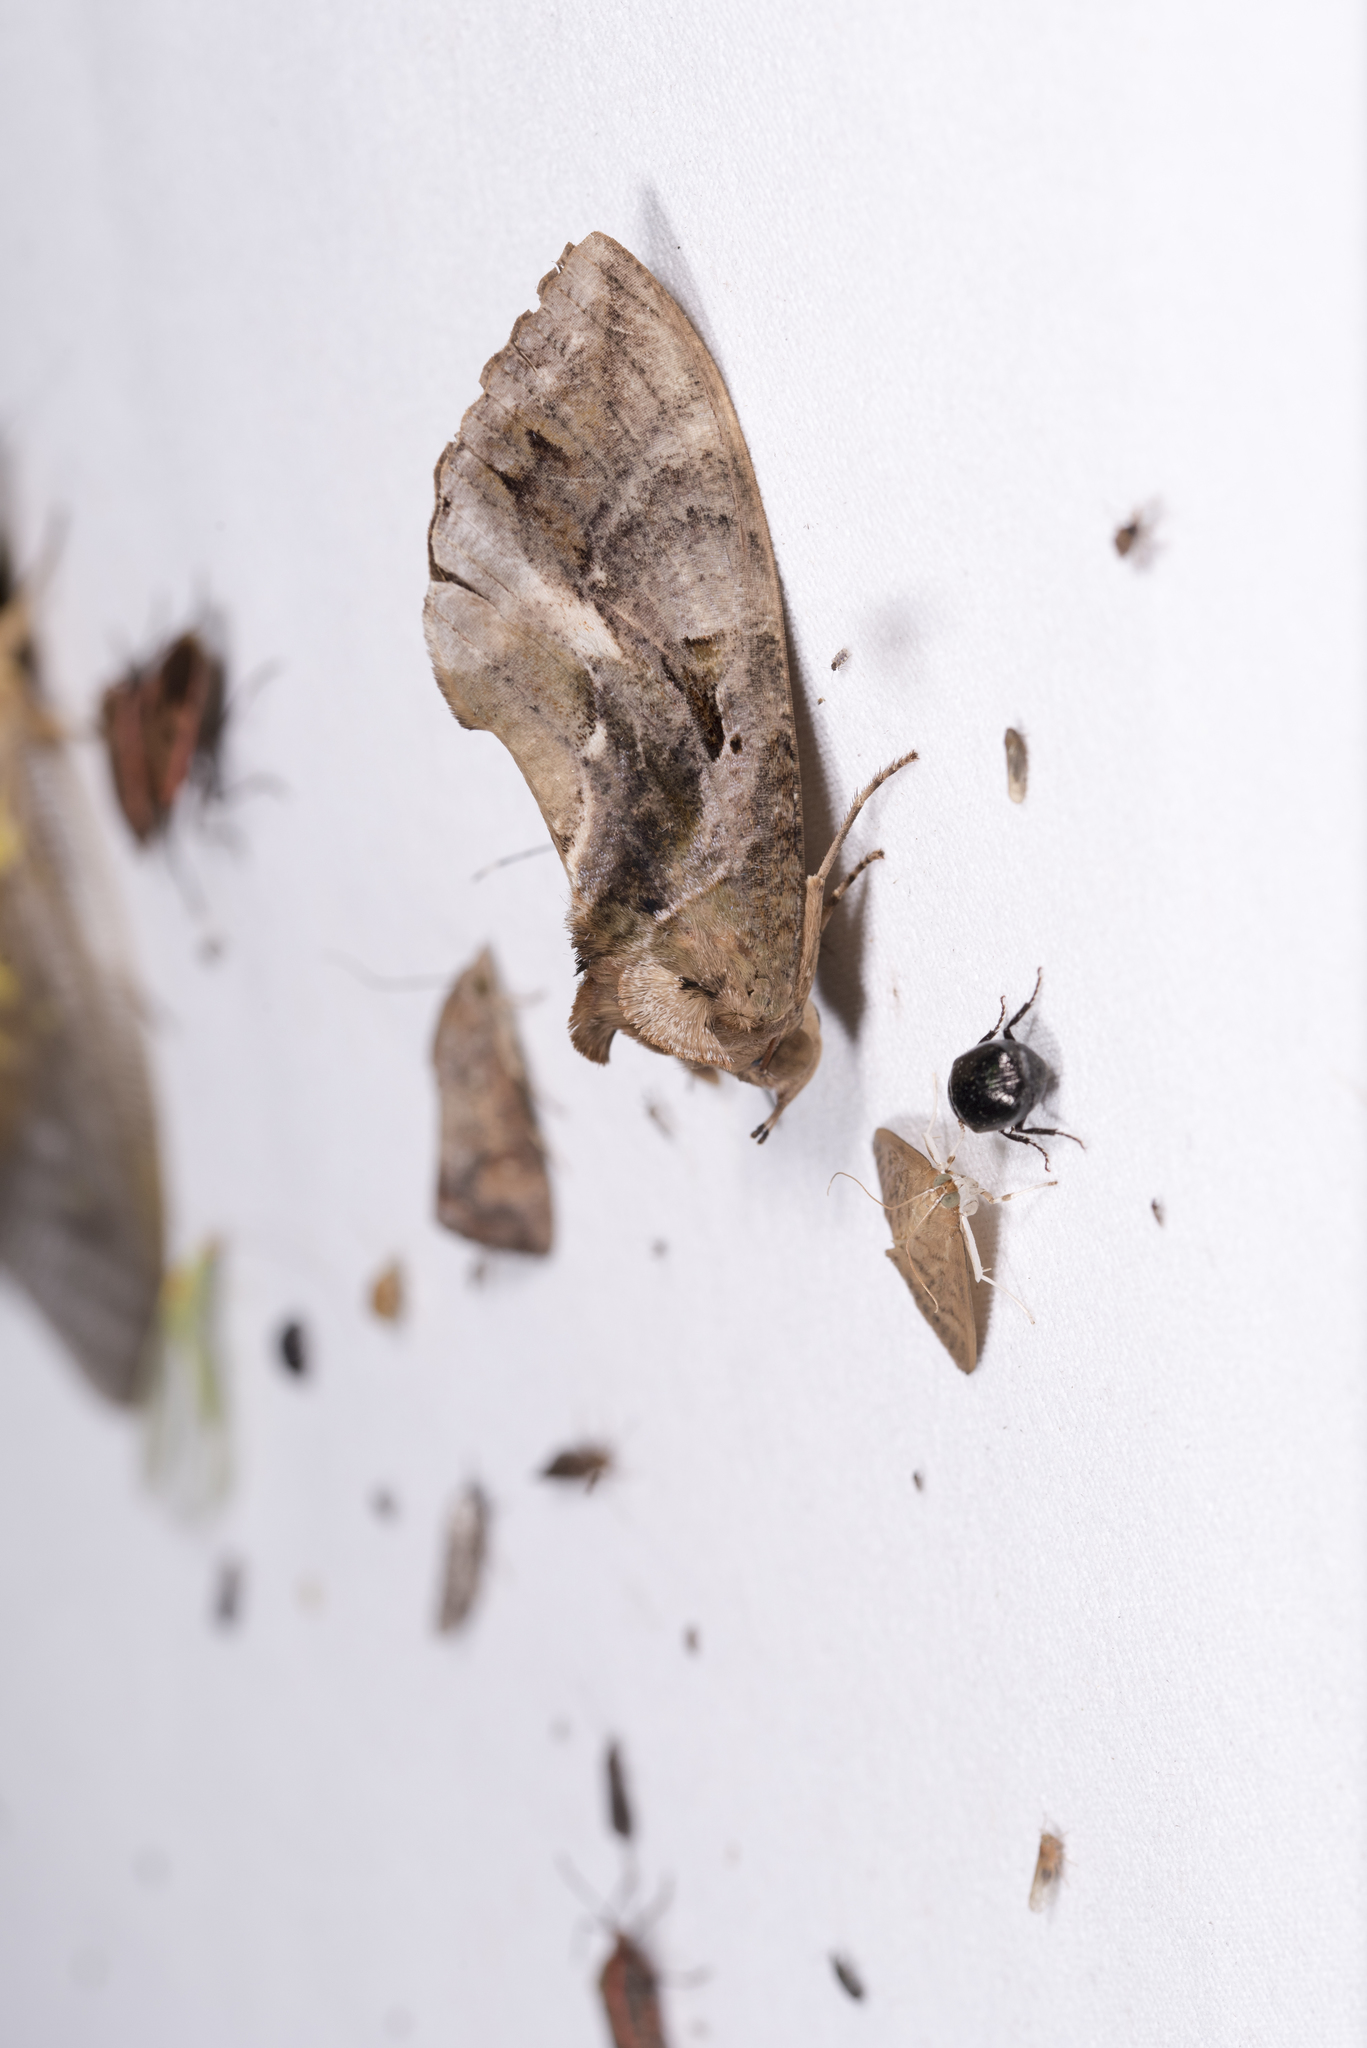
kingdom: Animalia
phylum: Arthropoda
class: Insecta
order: Lepidoptera
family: Erebidae
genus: Eudocima
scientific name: Eudocima phalonia
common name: Wasp
